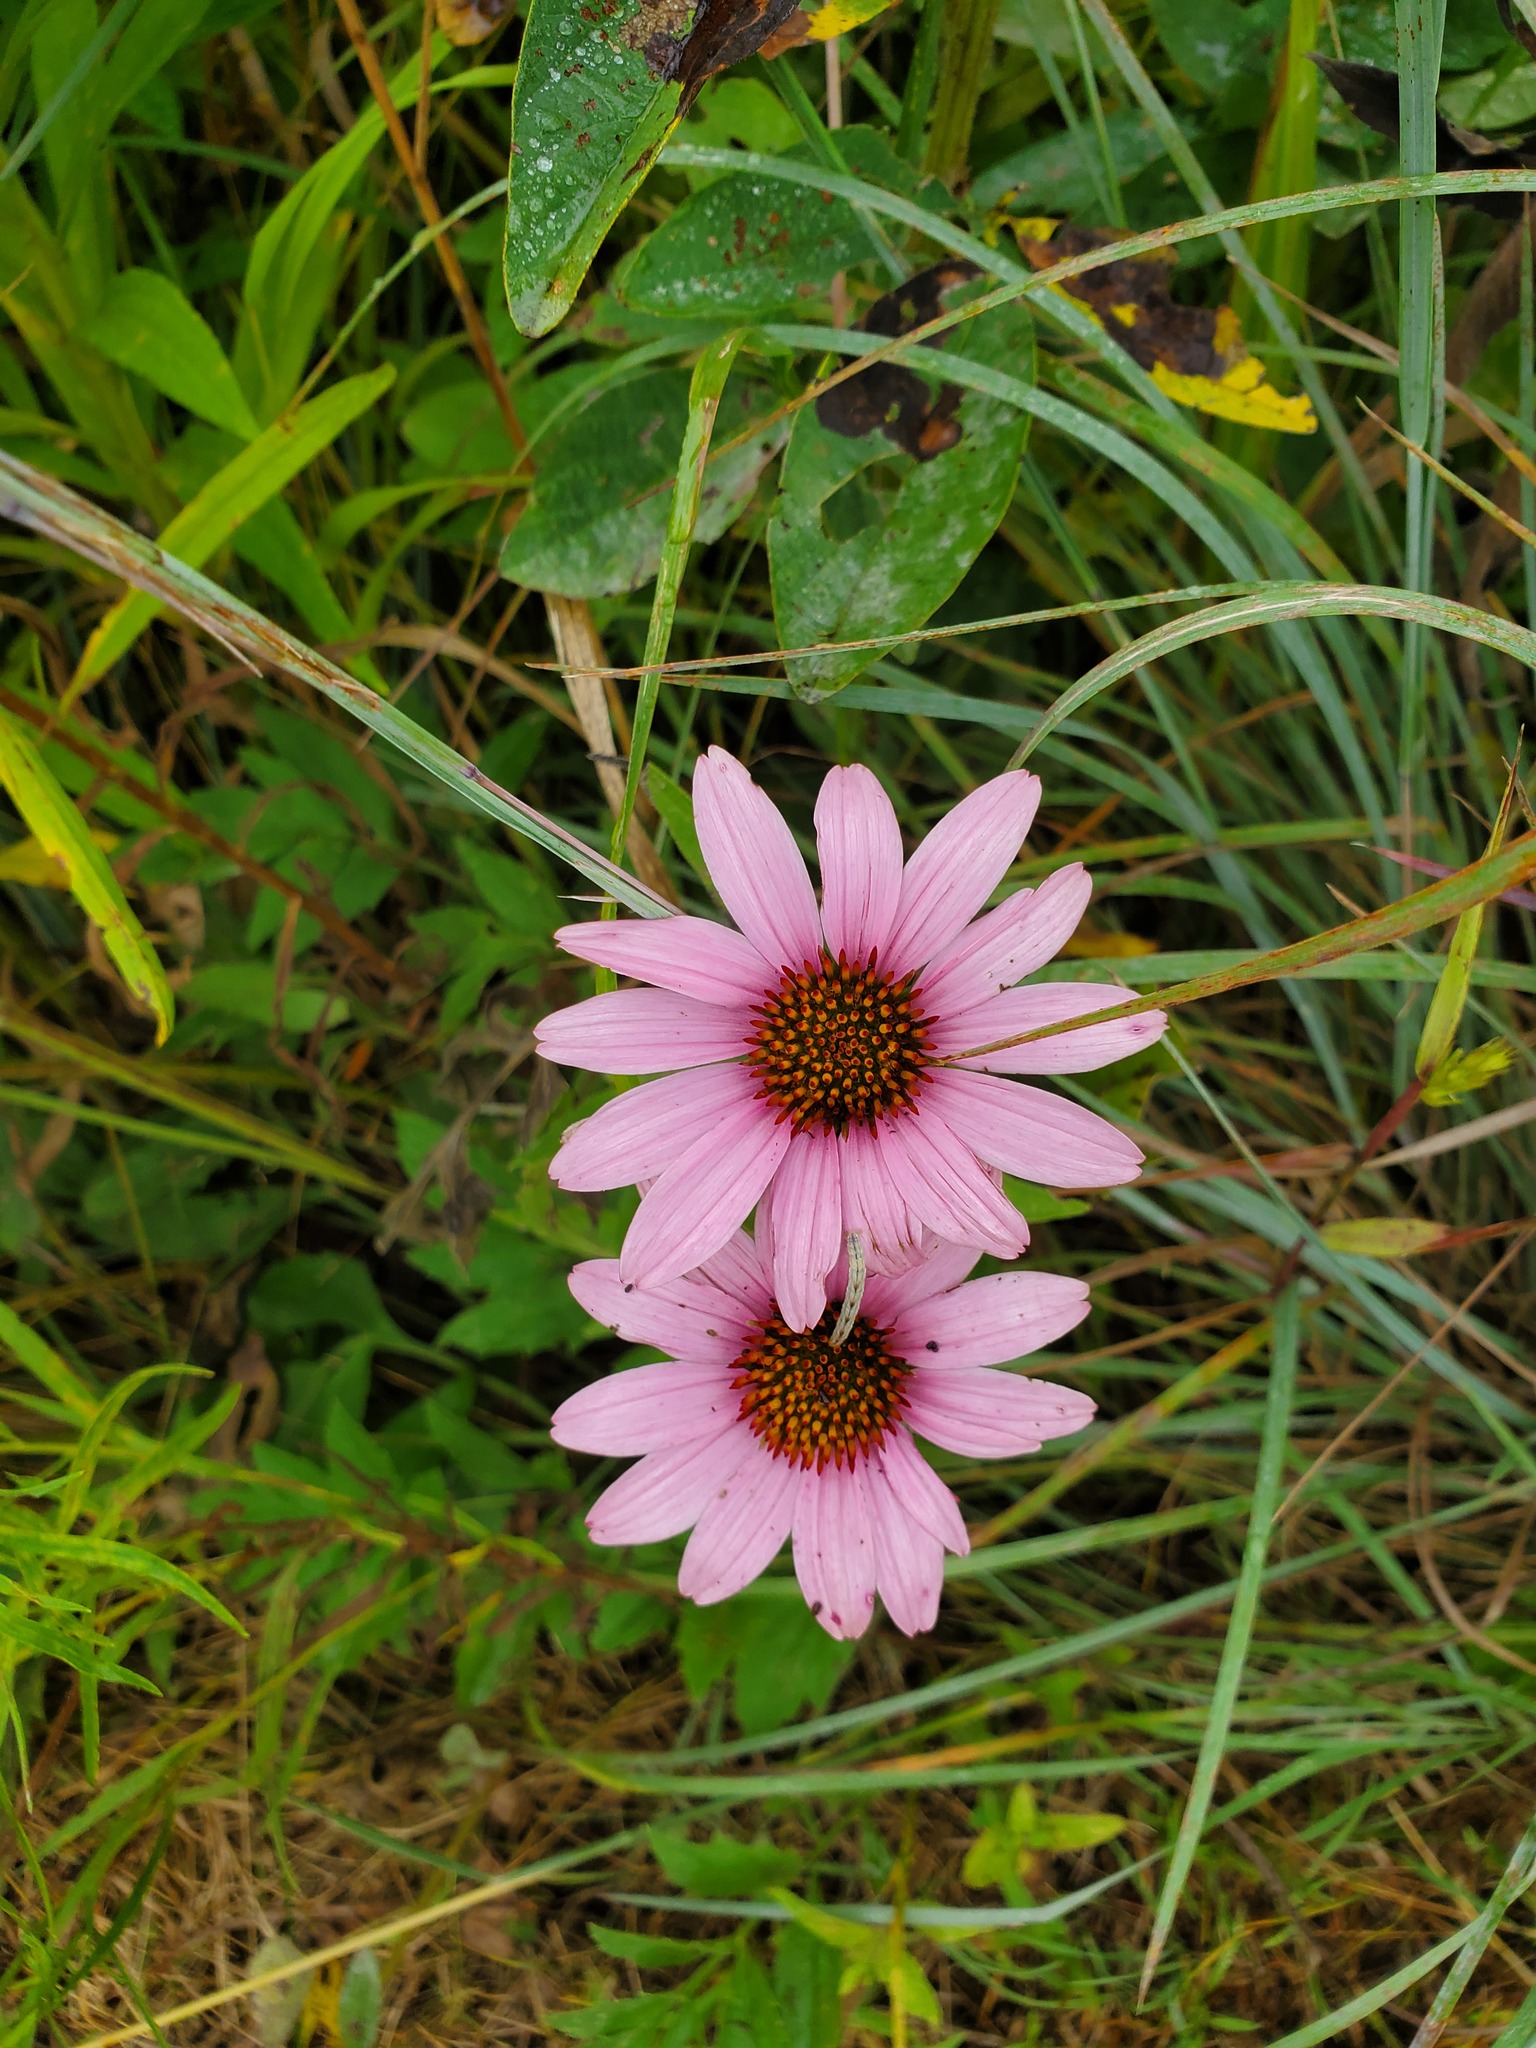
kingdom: Plantae
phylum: Tracheophyta
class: Magnoliopsida
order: Asterales
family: Asteraceae
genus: Echinacea
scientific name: Echinacea purpurea
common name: Broad-leaved purple coneflower
